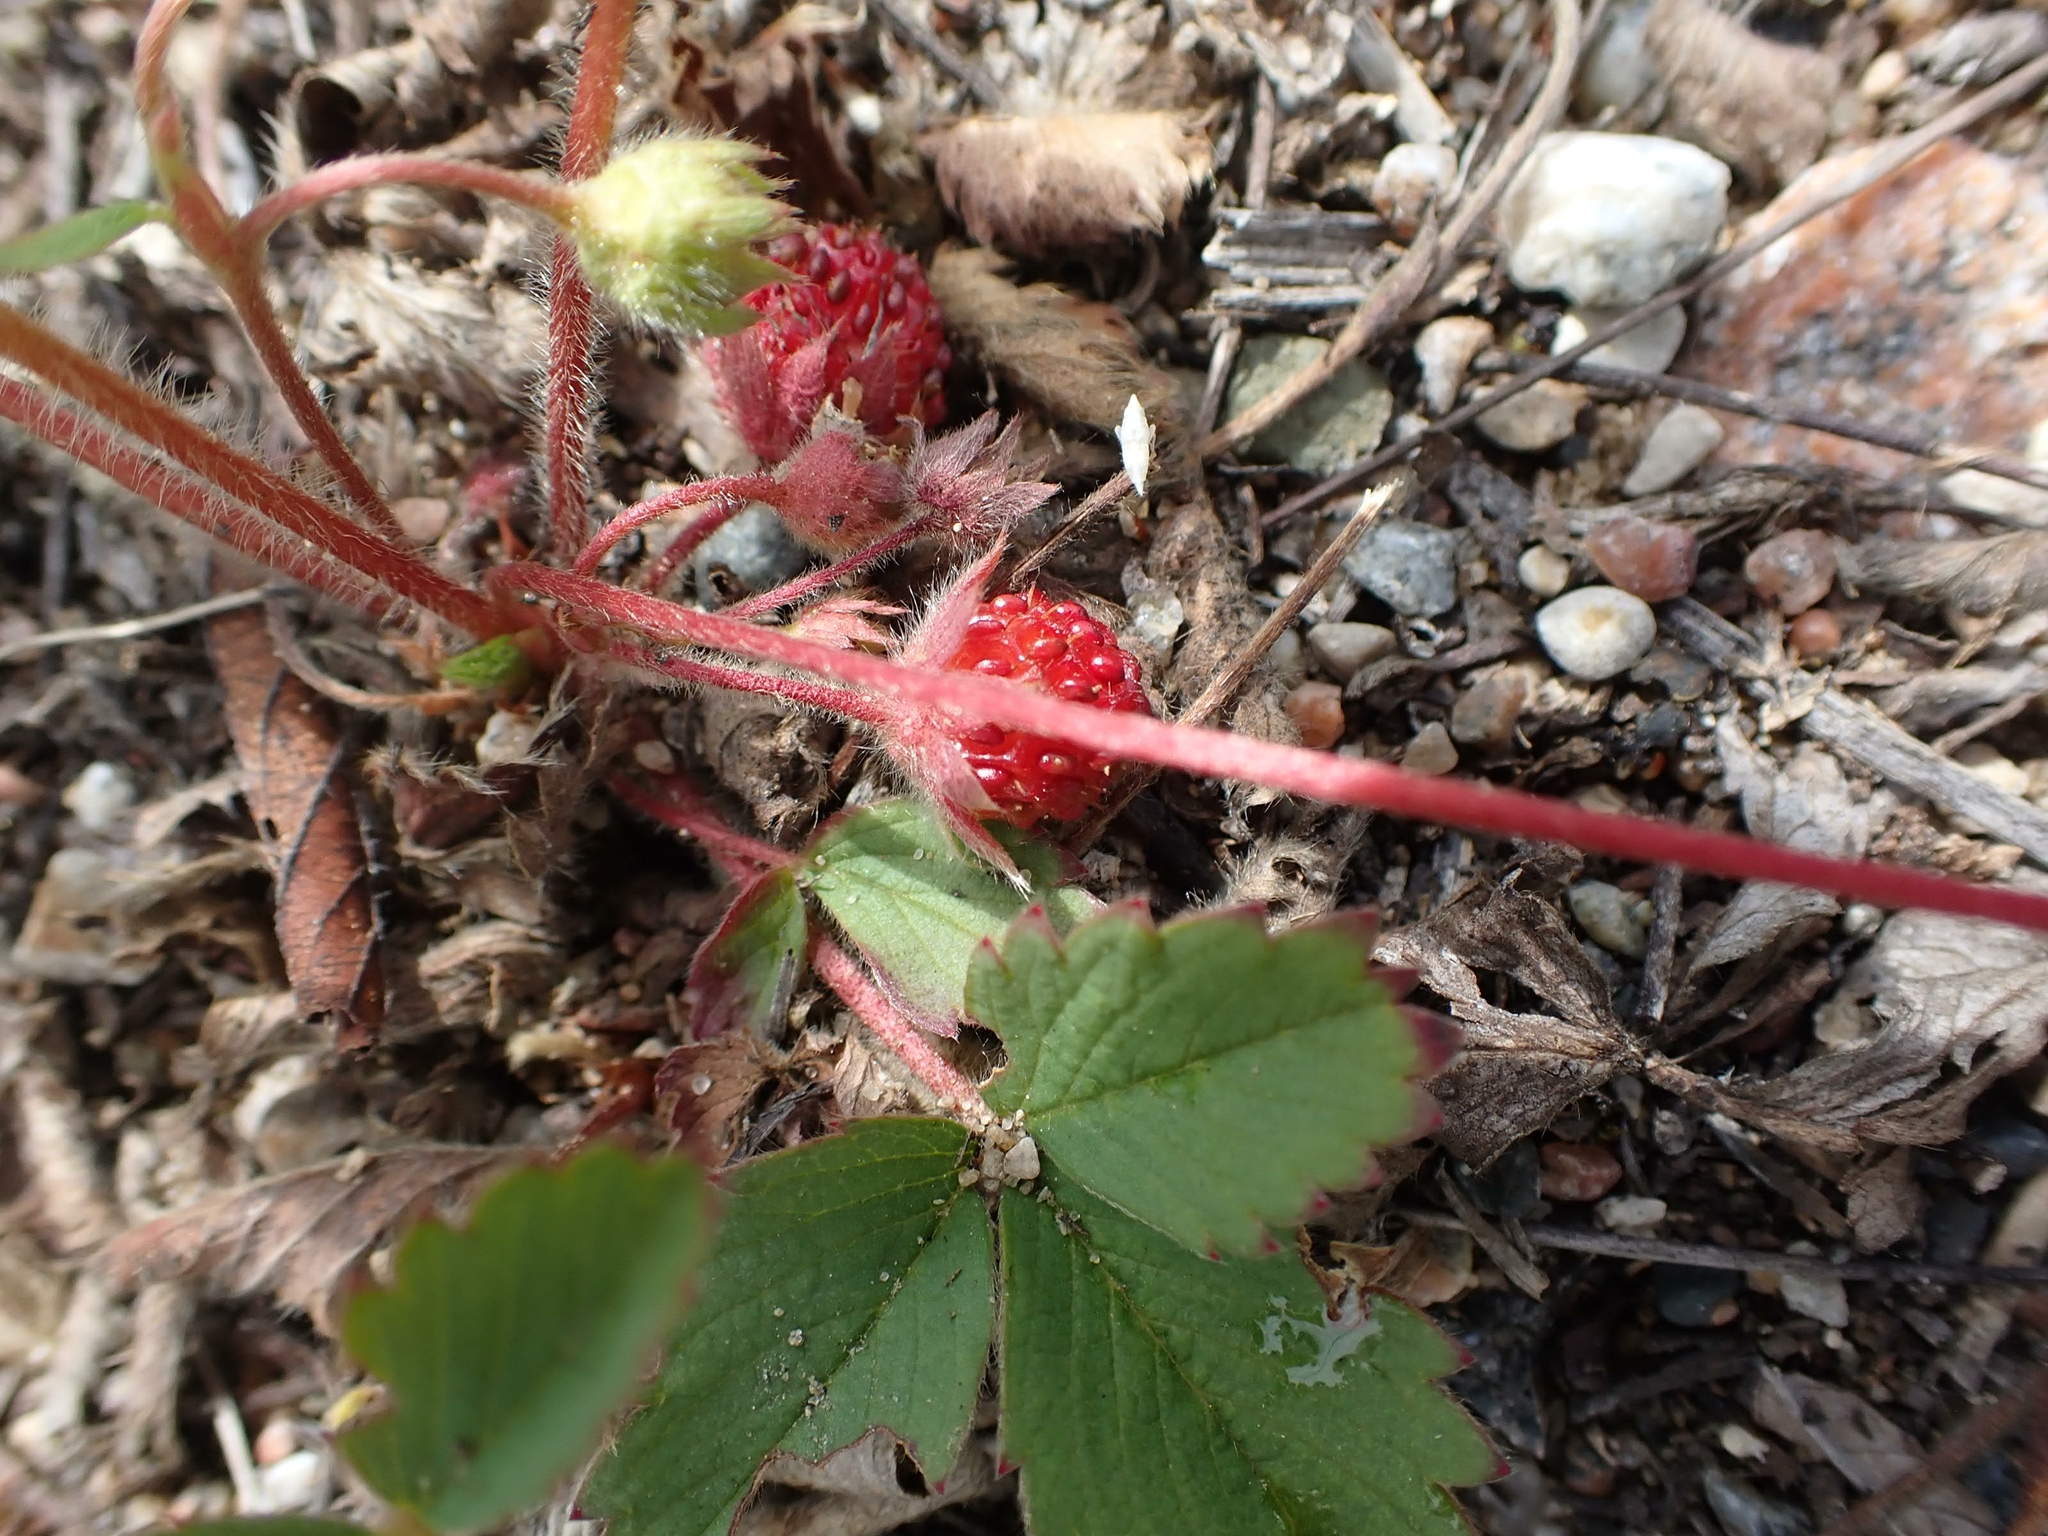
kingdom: Plantae
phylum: Tracheophyta
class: Magnoliopsida
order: Rosales
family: Rosaceae
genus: Fragaria
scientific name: Fragaria virginiana
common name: Thickleaved wild strawberry
